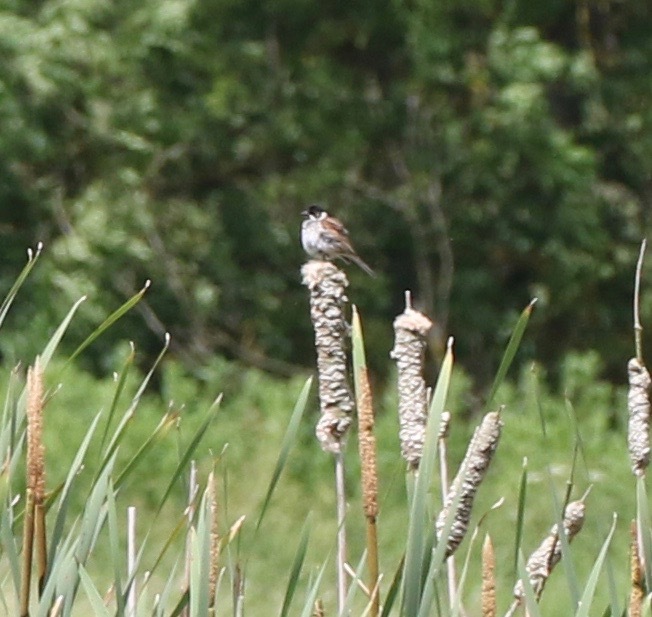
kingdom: Animalia
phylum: Chordata
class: Aves
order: Passeriformes
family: Emberizidae
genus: Emberiza
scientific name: Emberiza schoeniclus
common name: Reed bunting
